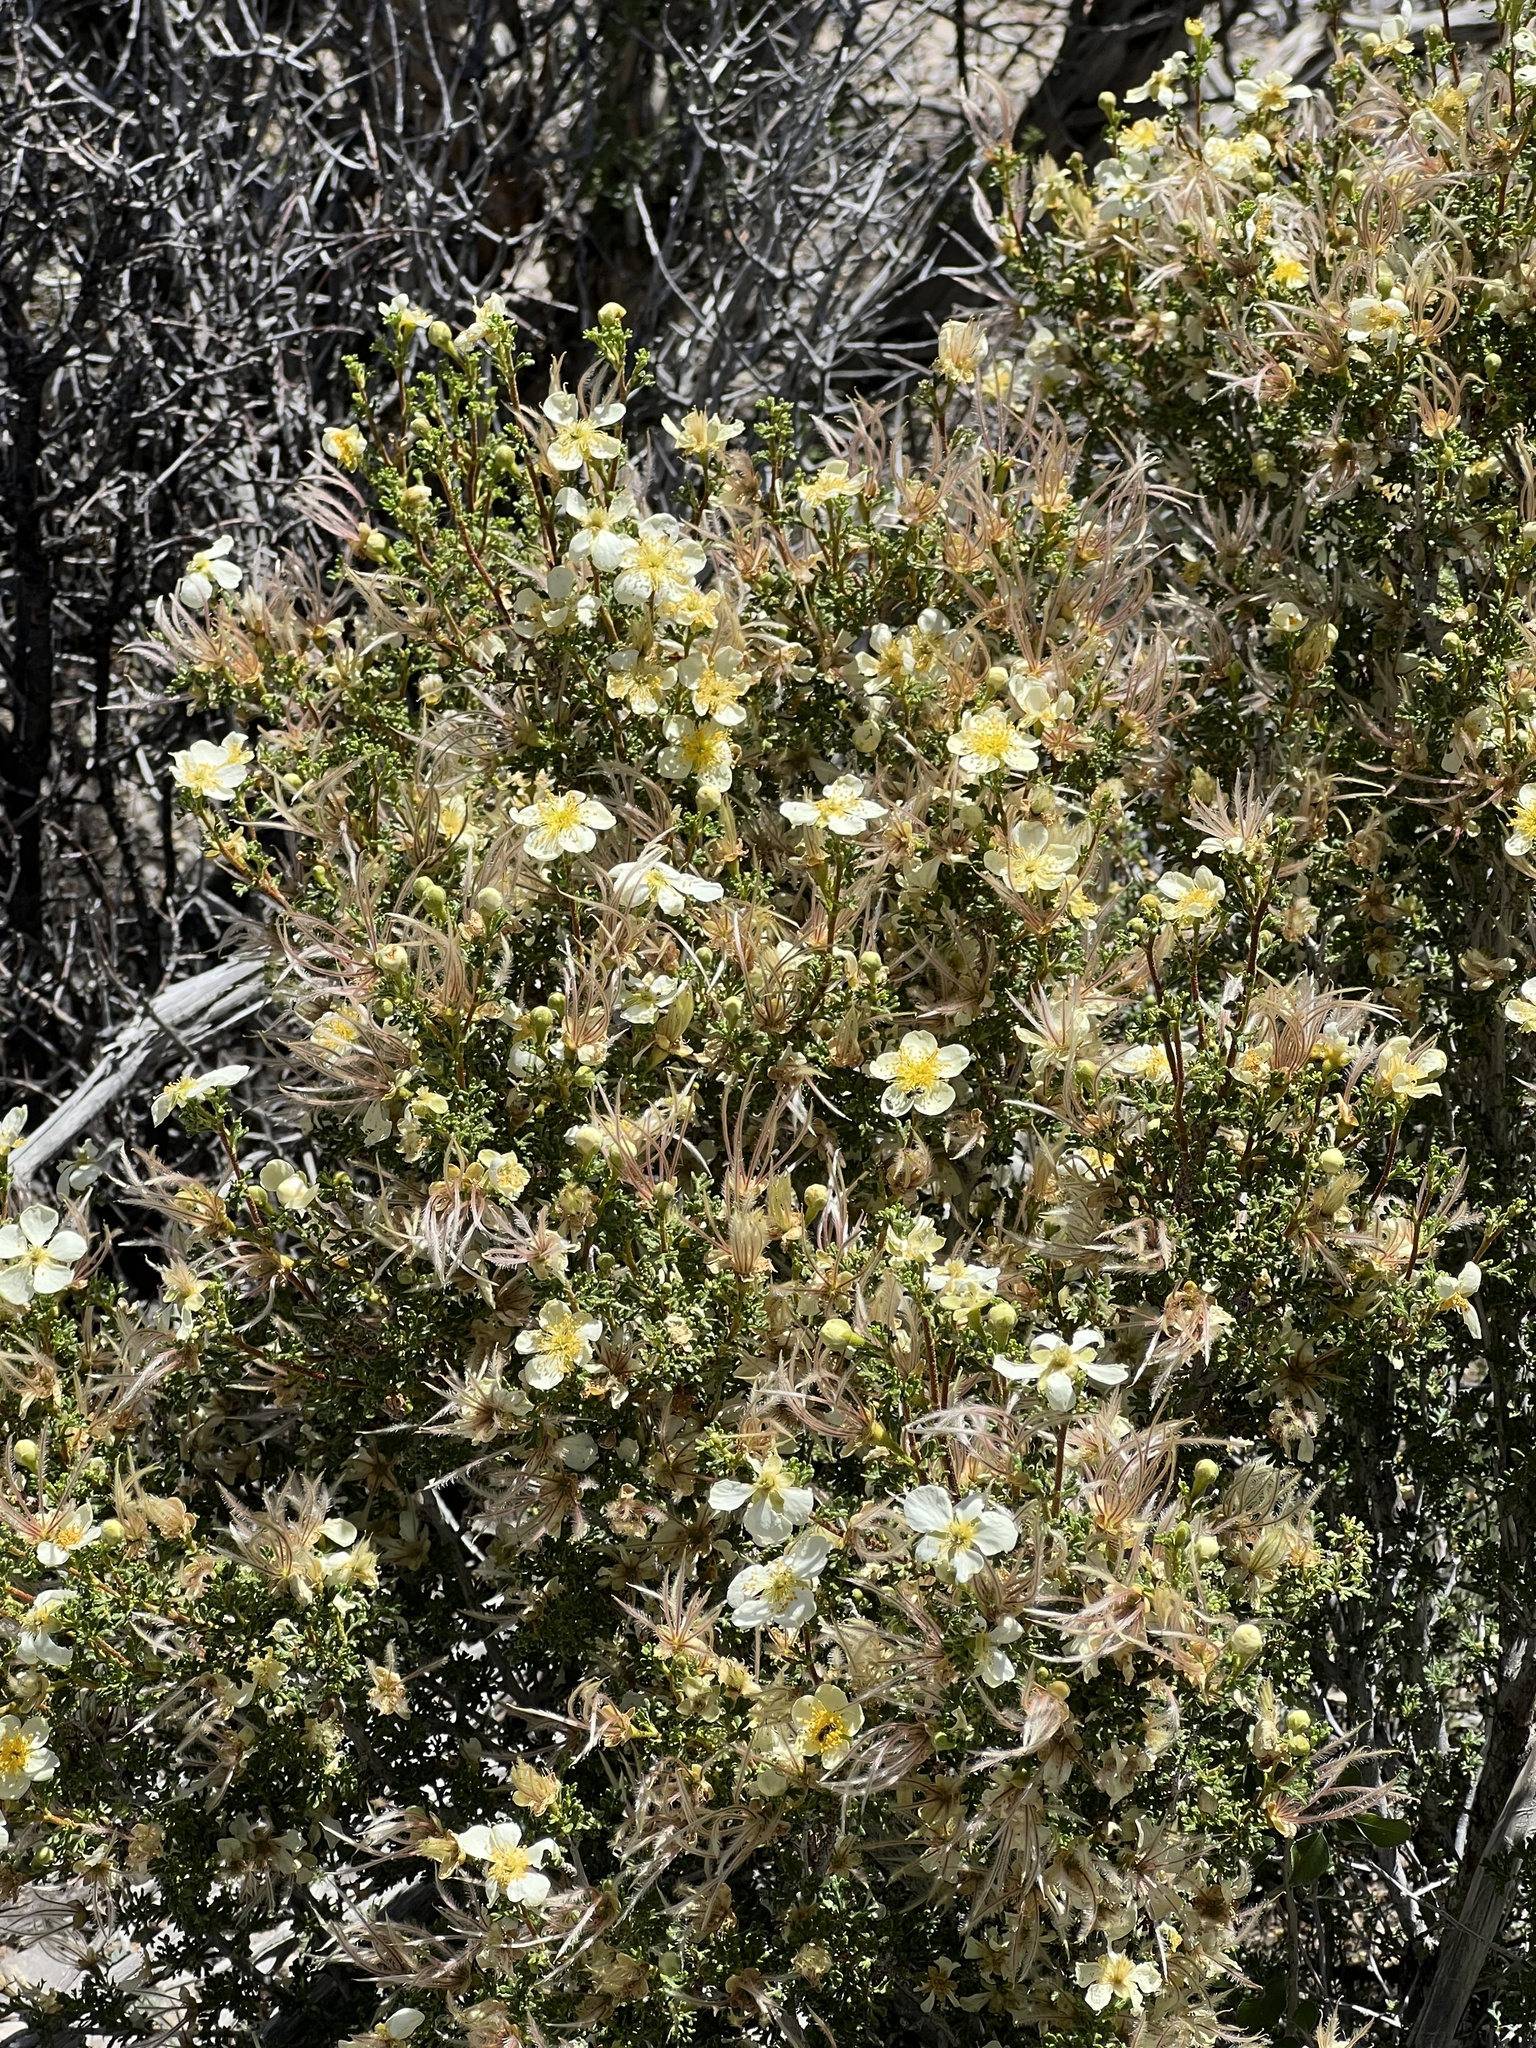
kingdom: Plantae
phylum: Tracheophyta
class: Magnoliopsida
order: Rosales
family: Rosaceae
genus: Purshia
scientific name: Purshia stansburiana
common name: Stansbury's cliffrose
